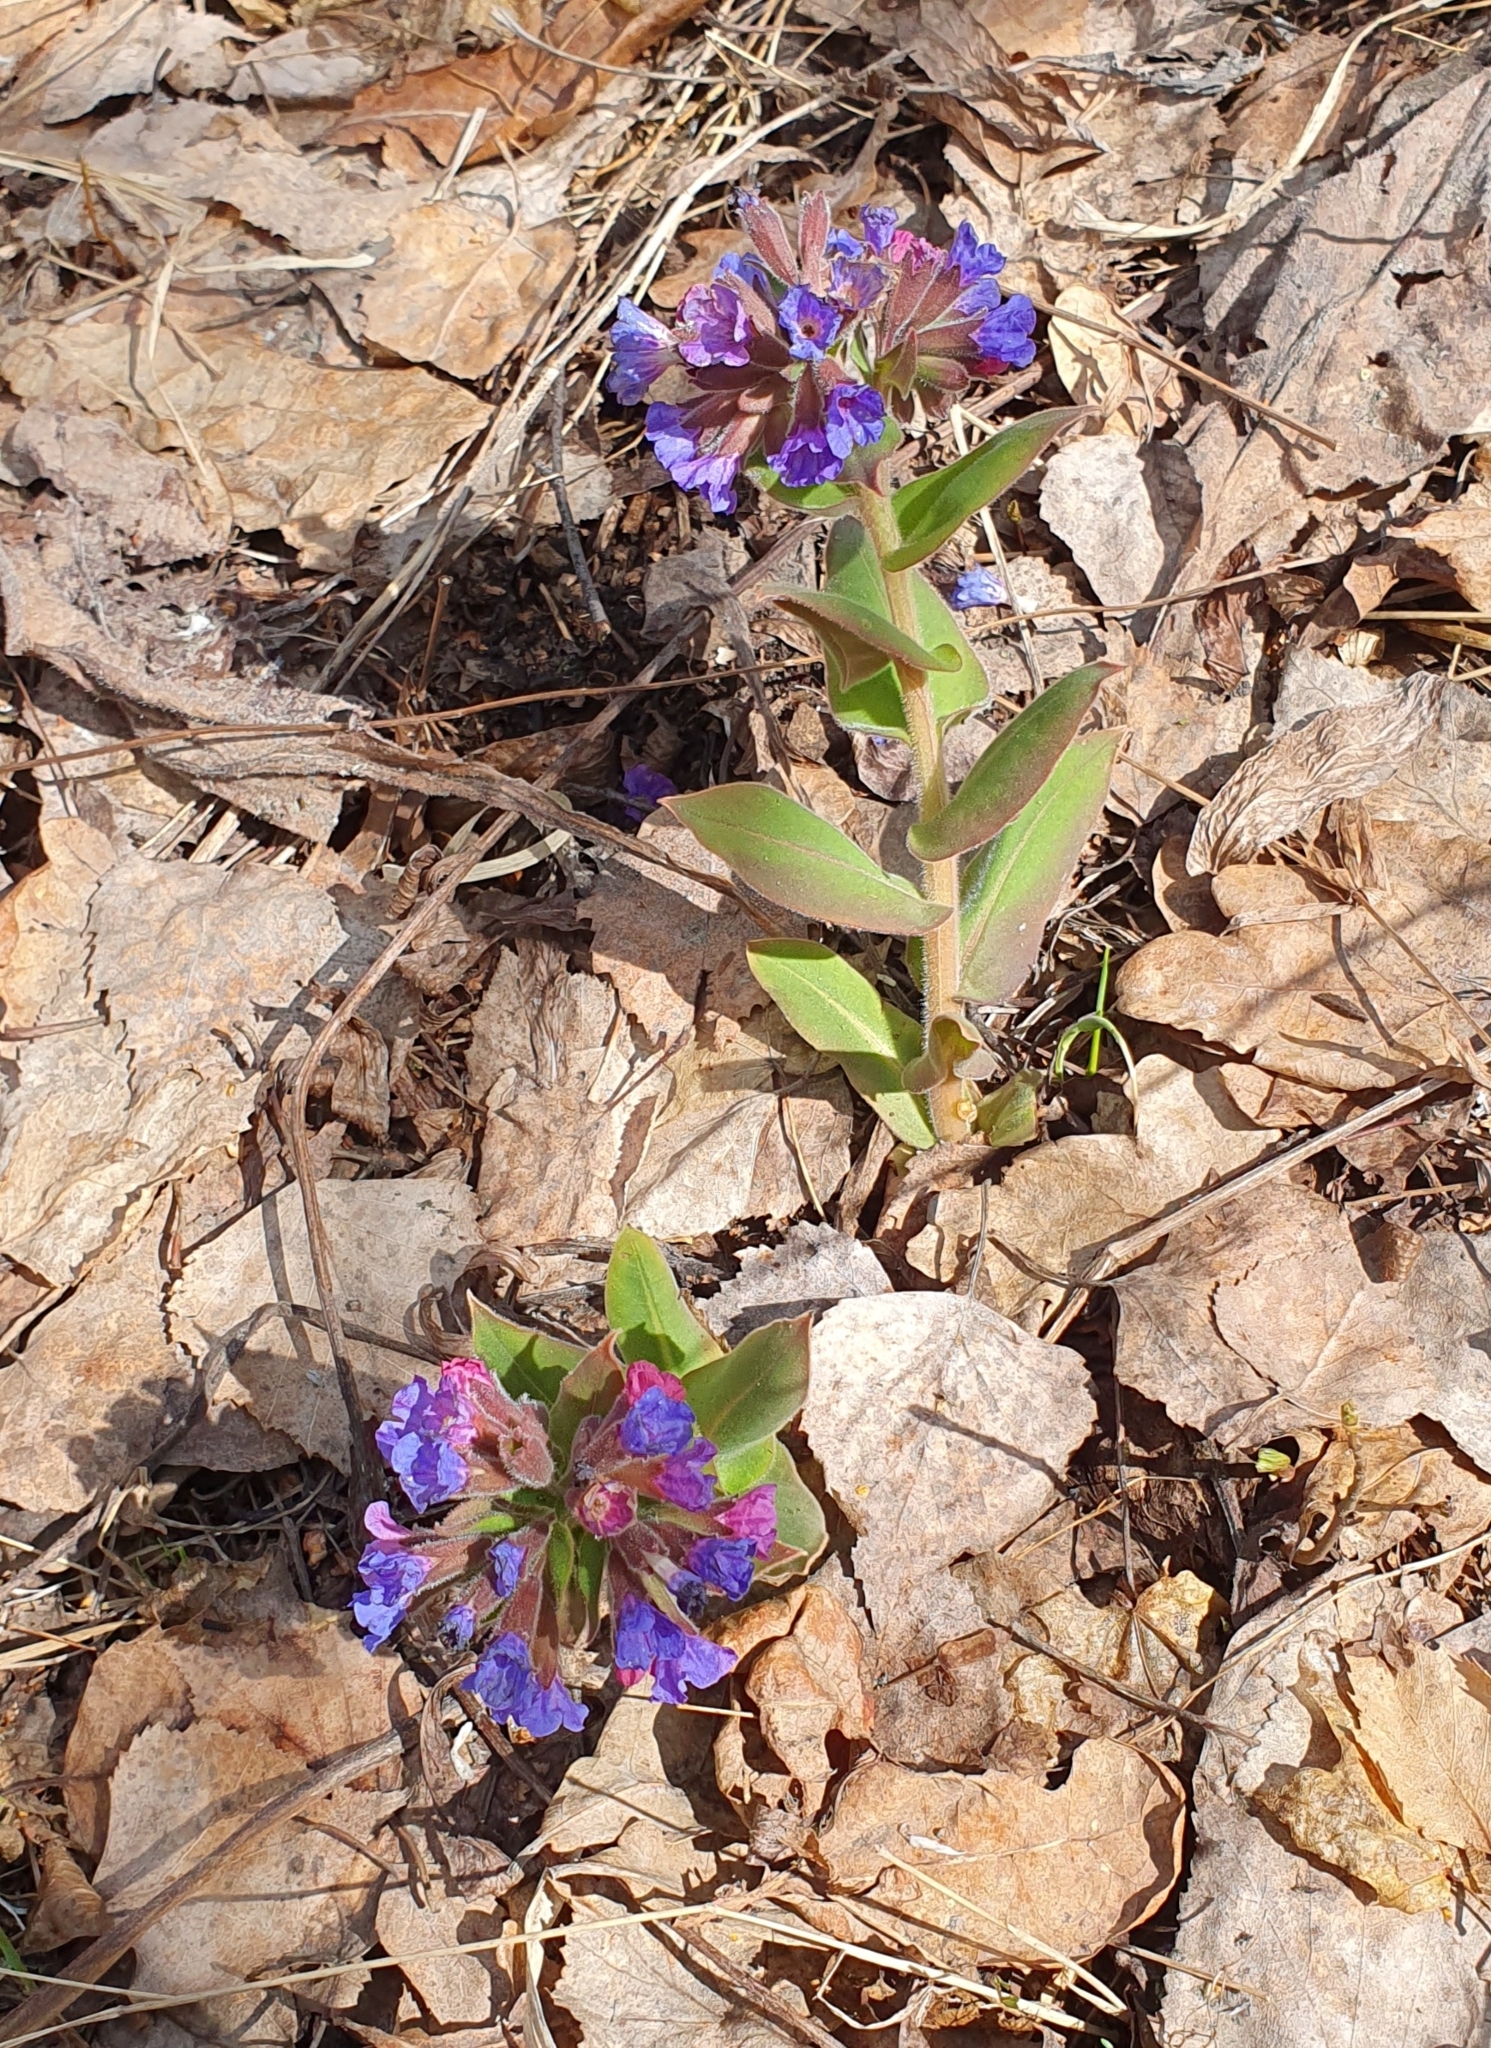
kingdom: Plantae
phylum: Tracheophyta
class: Magnoliopsida
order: Boraginales
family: Boraginaceae
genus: Pulmonaria
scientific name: Pulmonaria mollis
